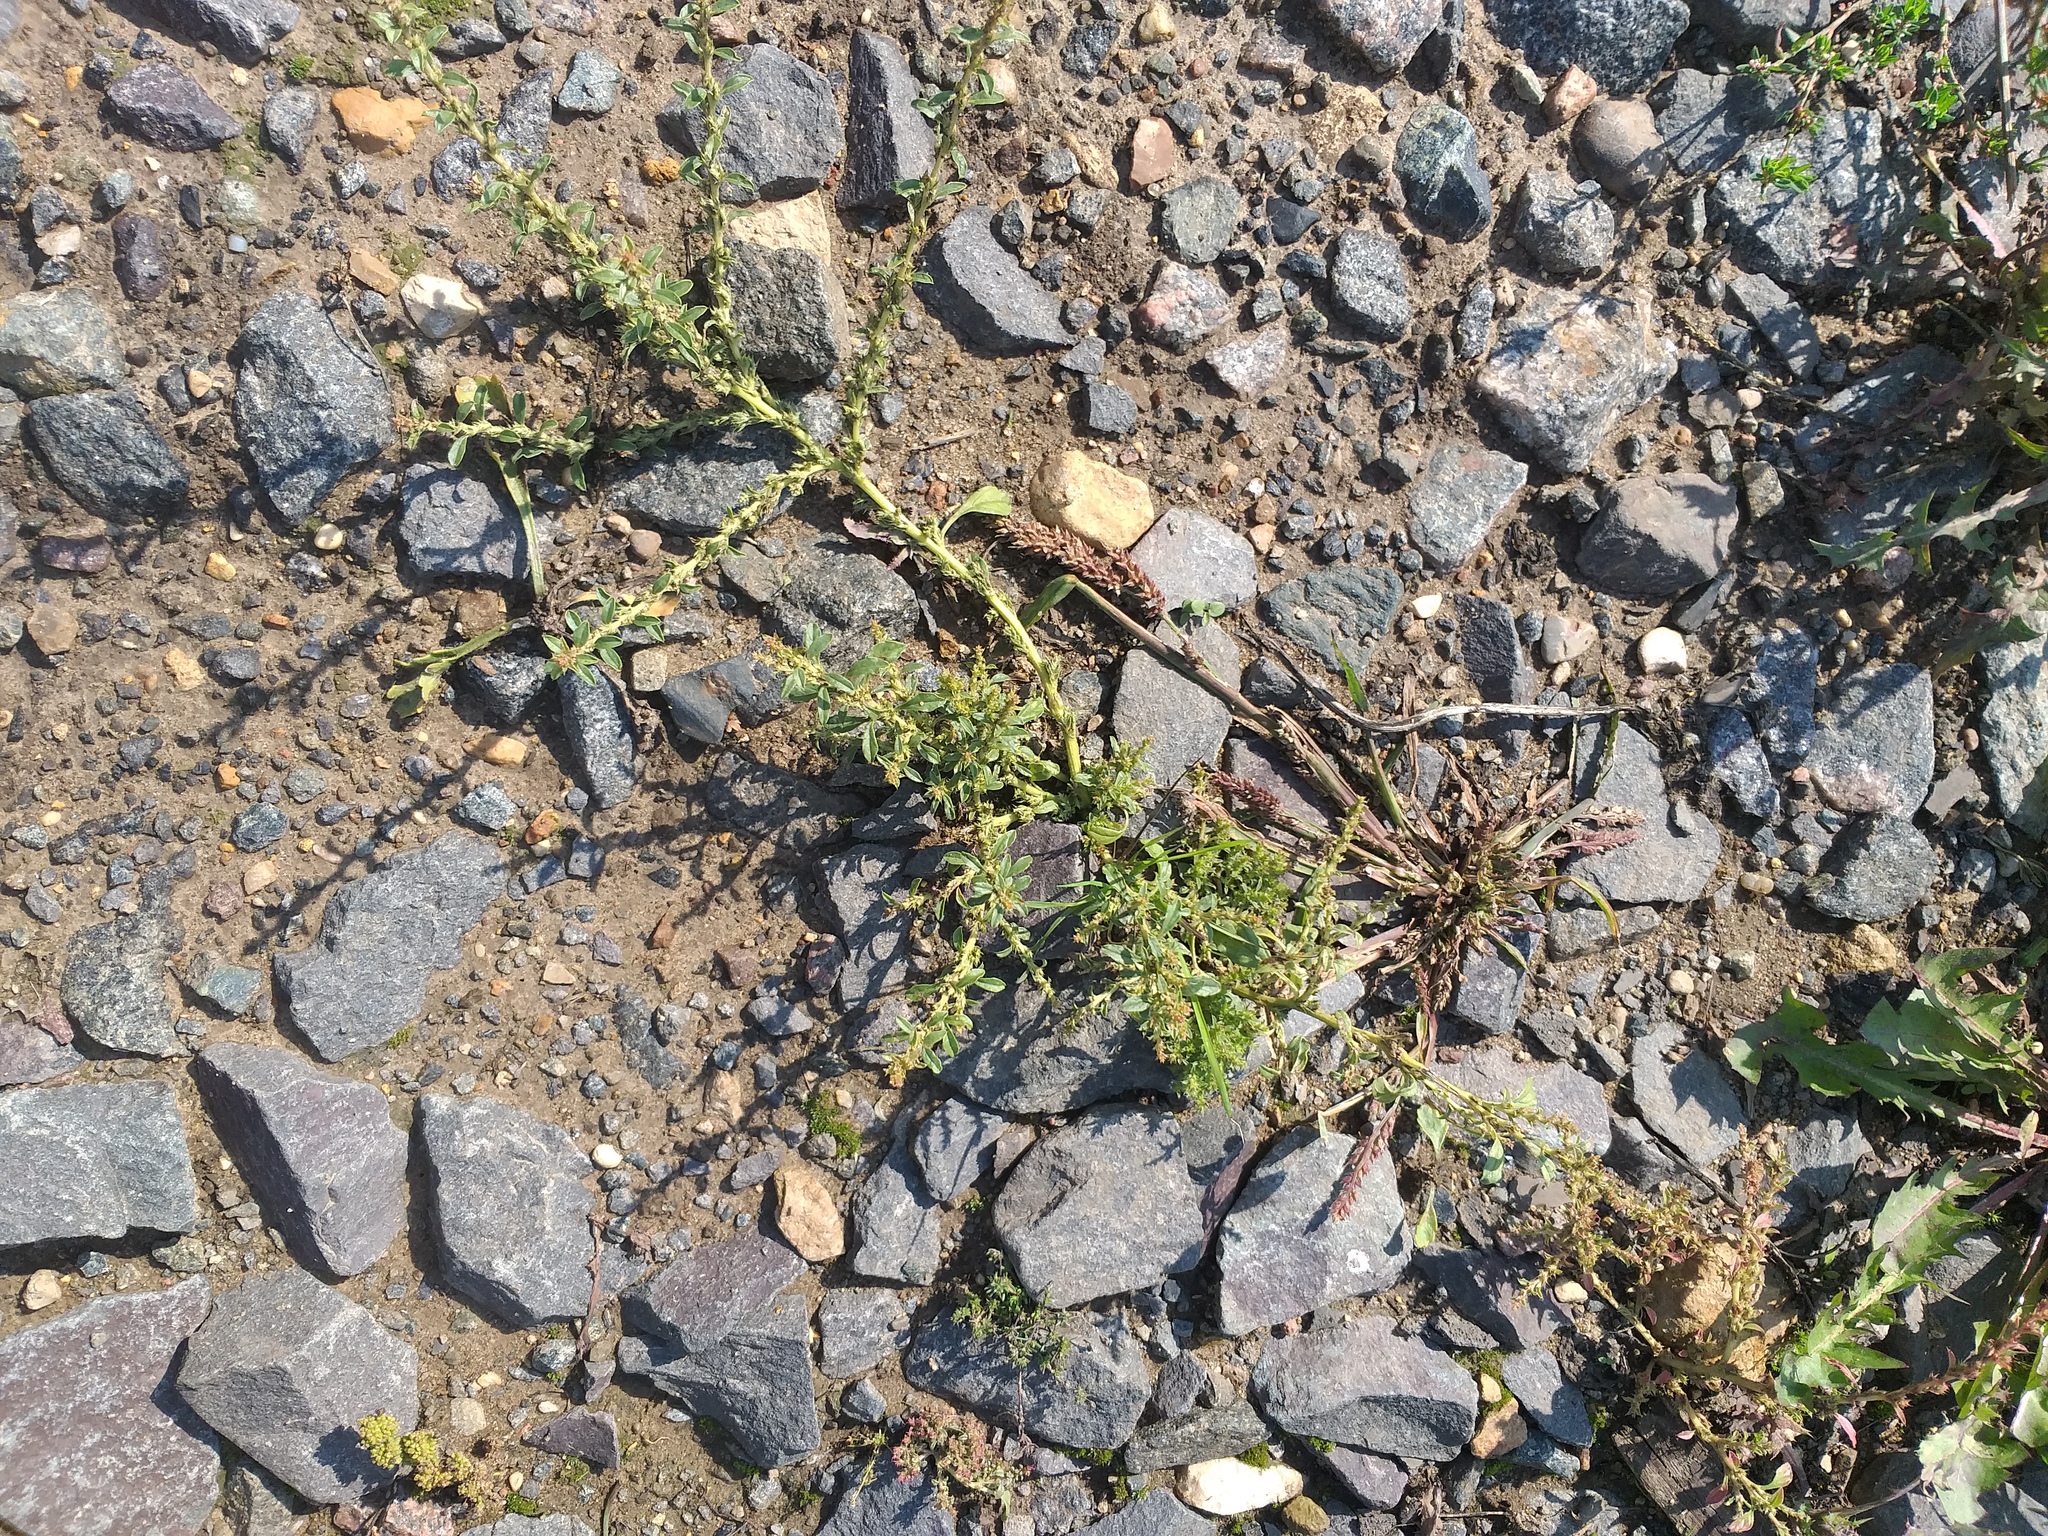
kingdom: Plantae
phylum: Tracheophyta
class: Magnoliopsida
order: Caryophyllales
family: Amaranthaceae
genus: Amaranthus
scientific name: Amaranthus albus
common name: White pigweed
